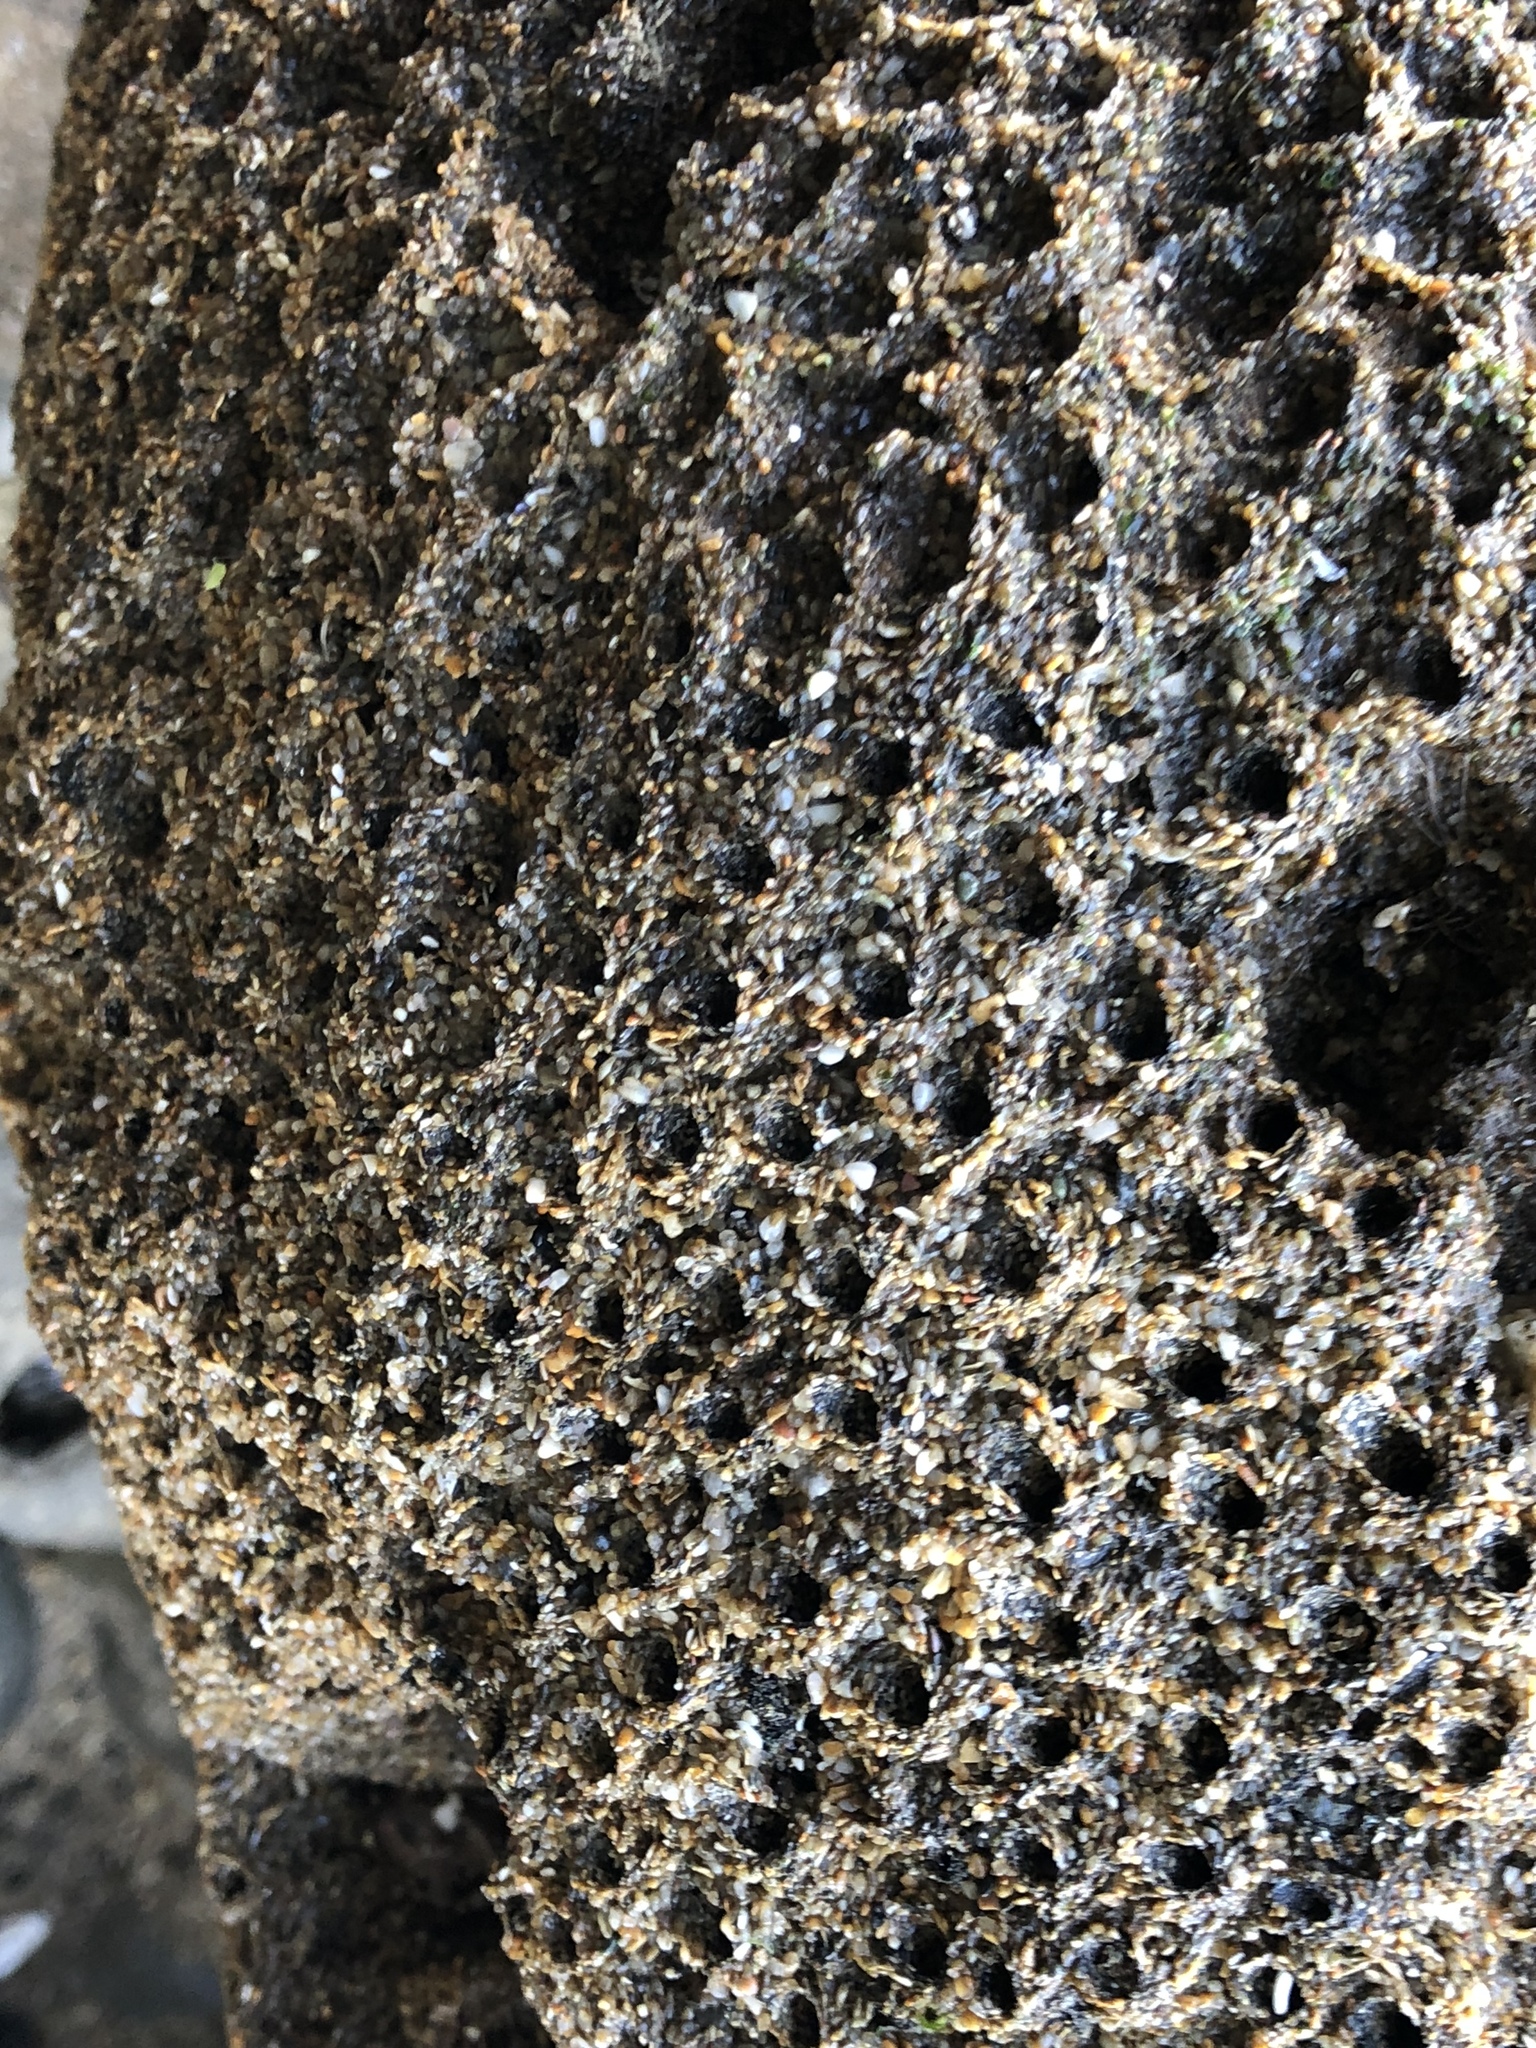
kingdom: Animalia
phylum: Annelida
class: Polychaeta
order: Sabellida
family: Sabellariidae
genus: Phragmatopoma
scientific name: Phragmatopoma californica
